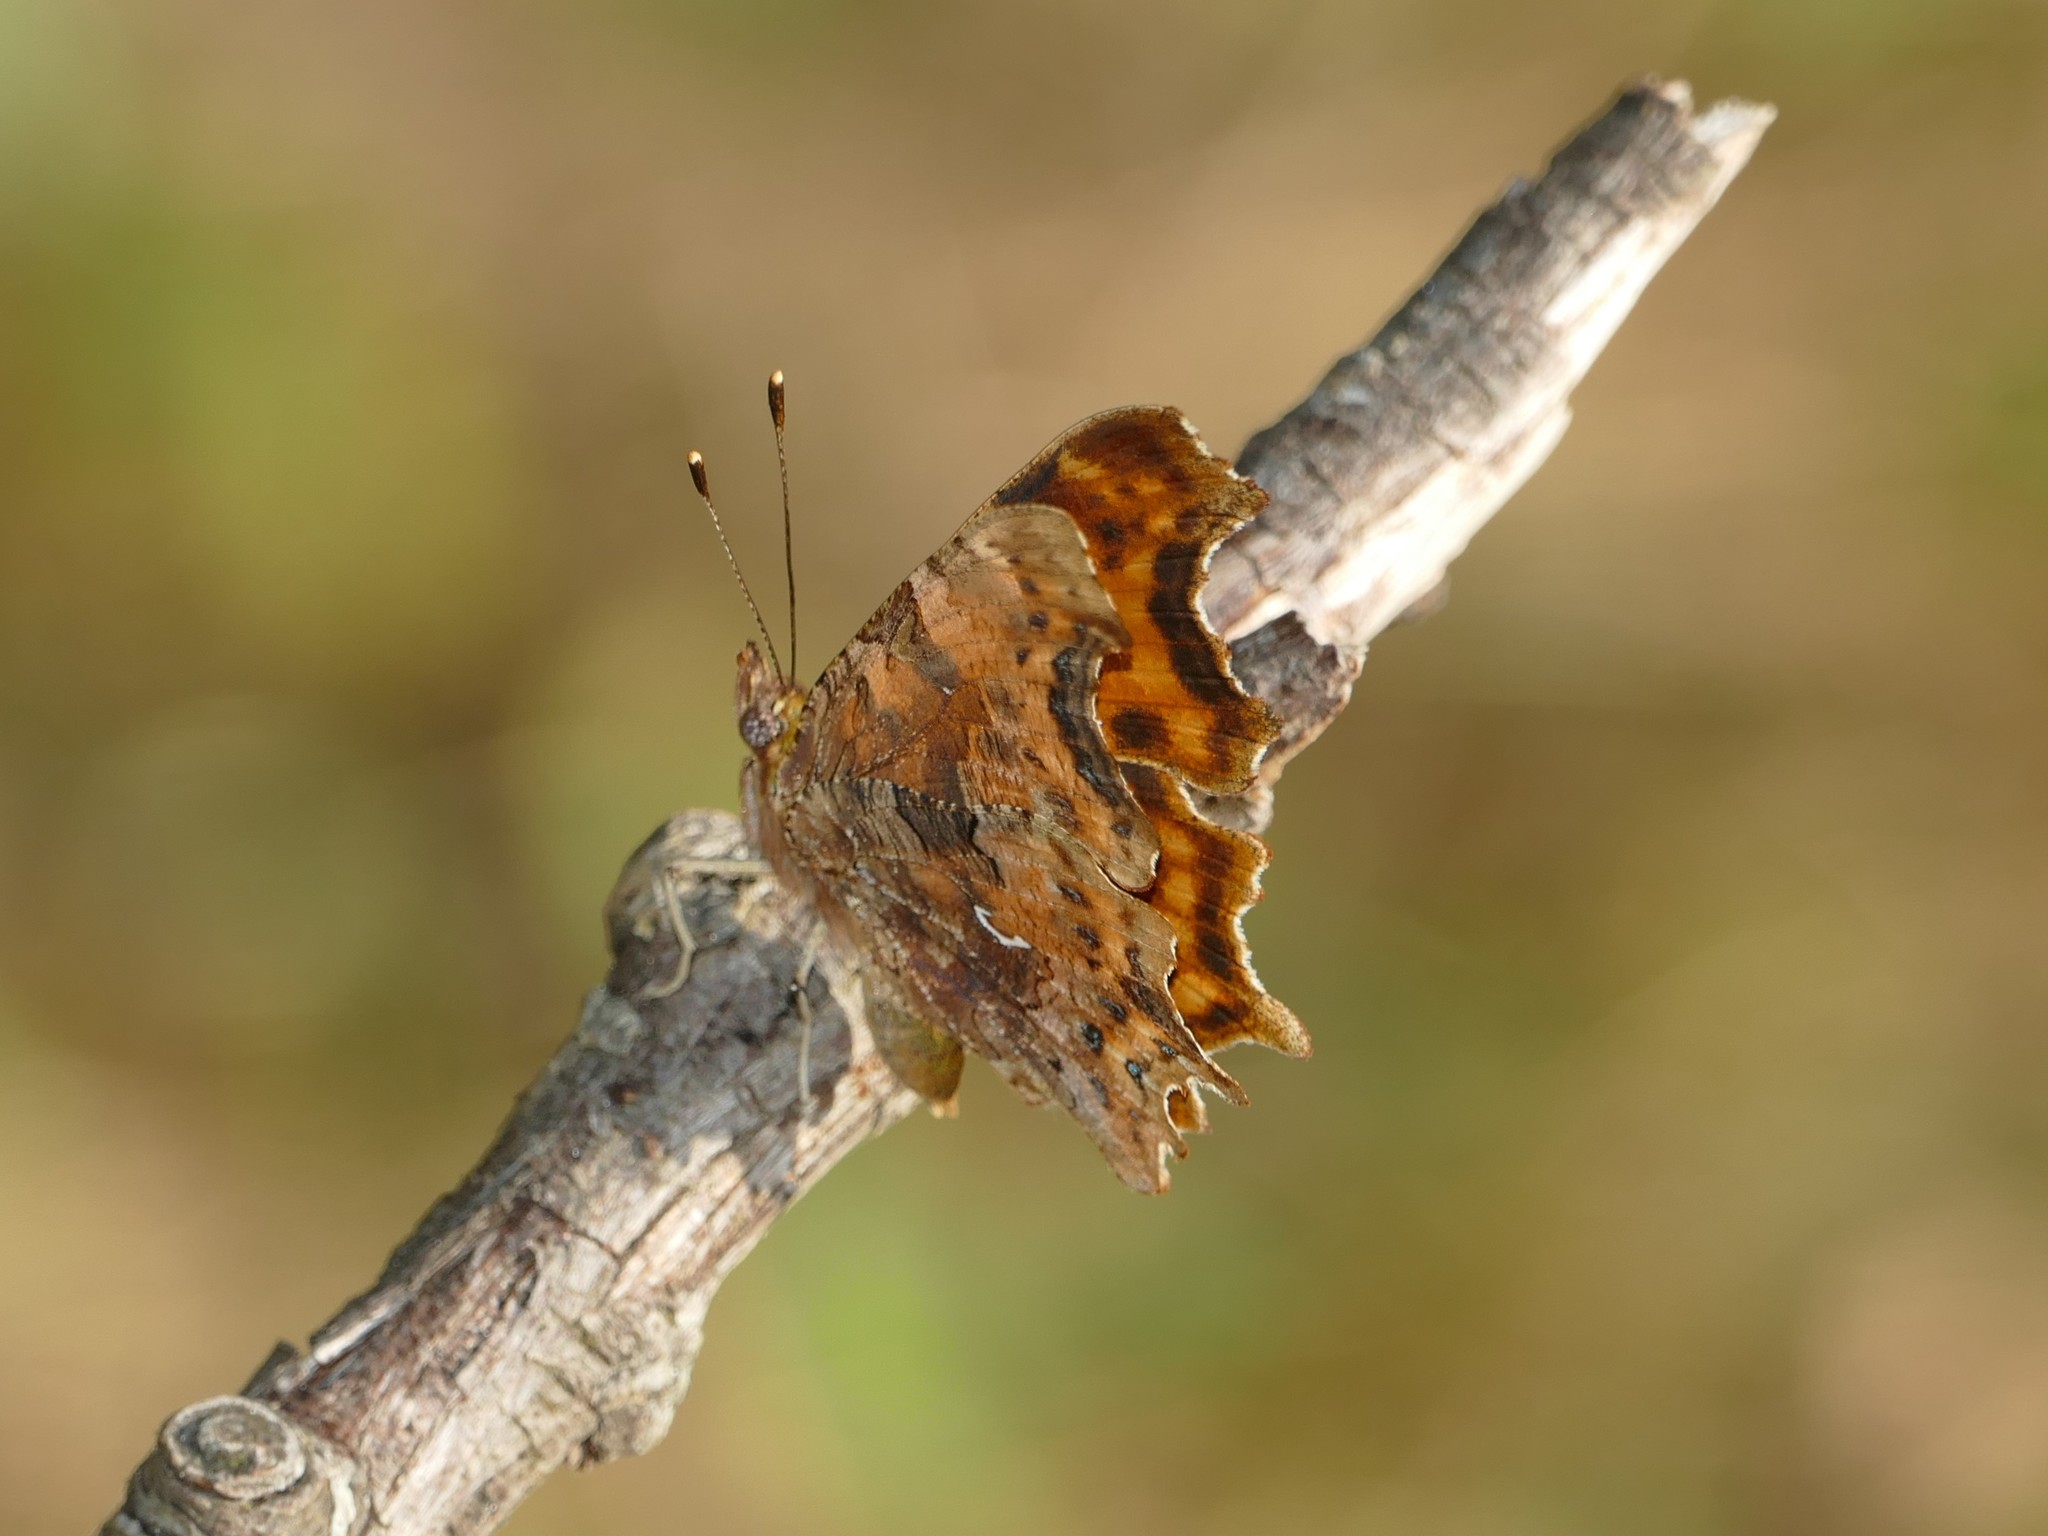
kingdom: Animalia
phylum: Arthropoda
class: Insecta
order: Lepidoptera
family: Nymphalidae
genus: Polygonia
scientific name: Polygonia c-album
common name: Comma
